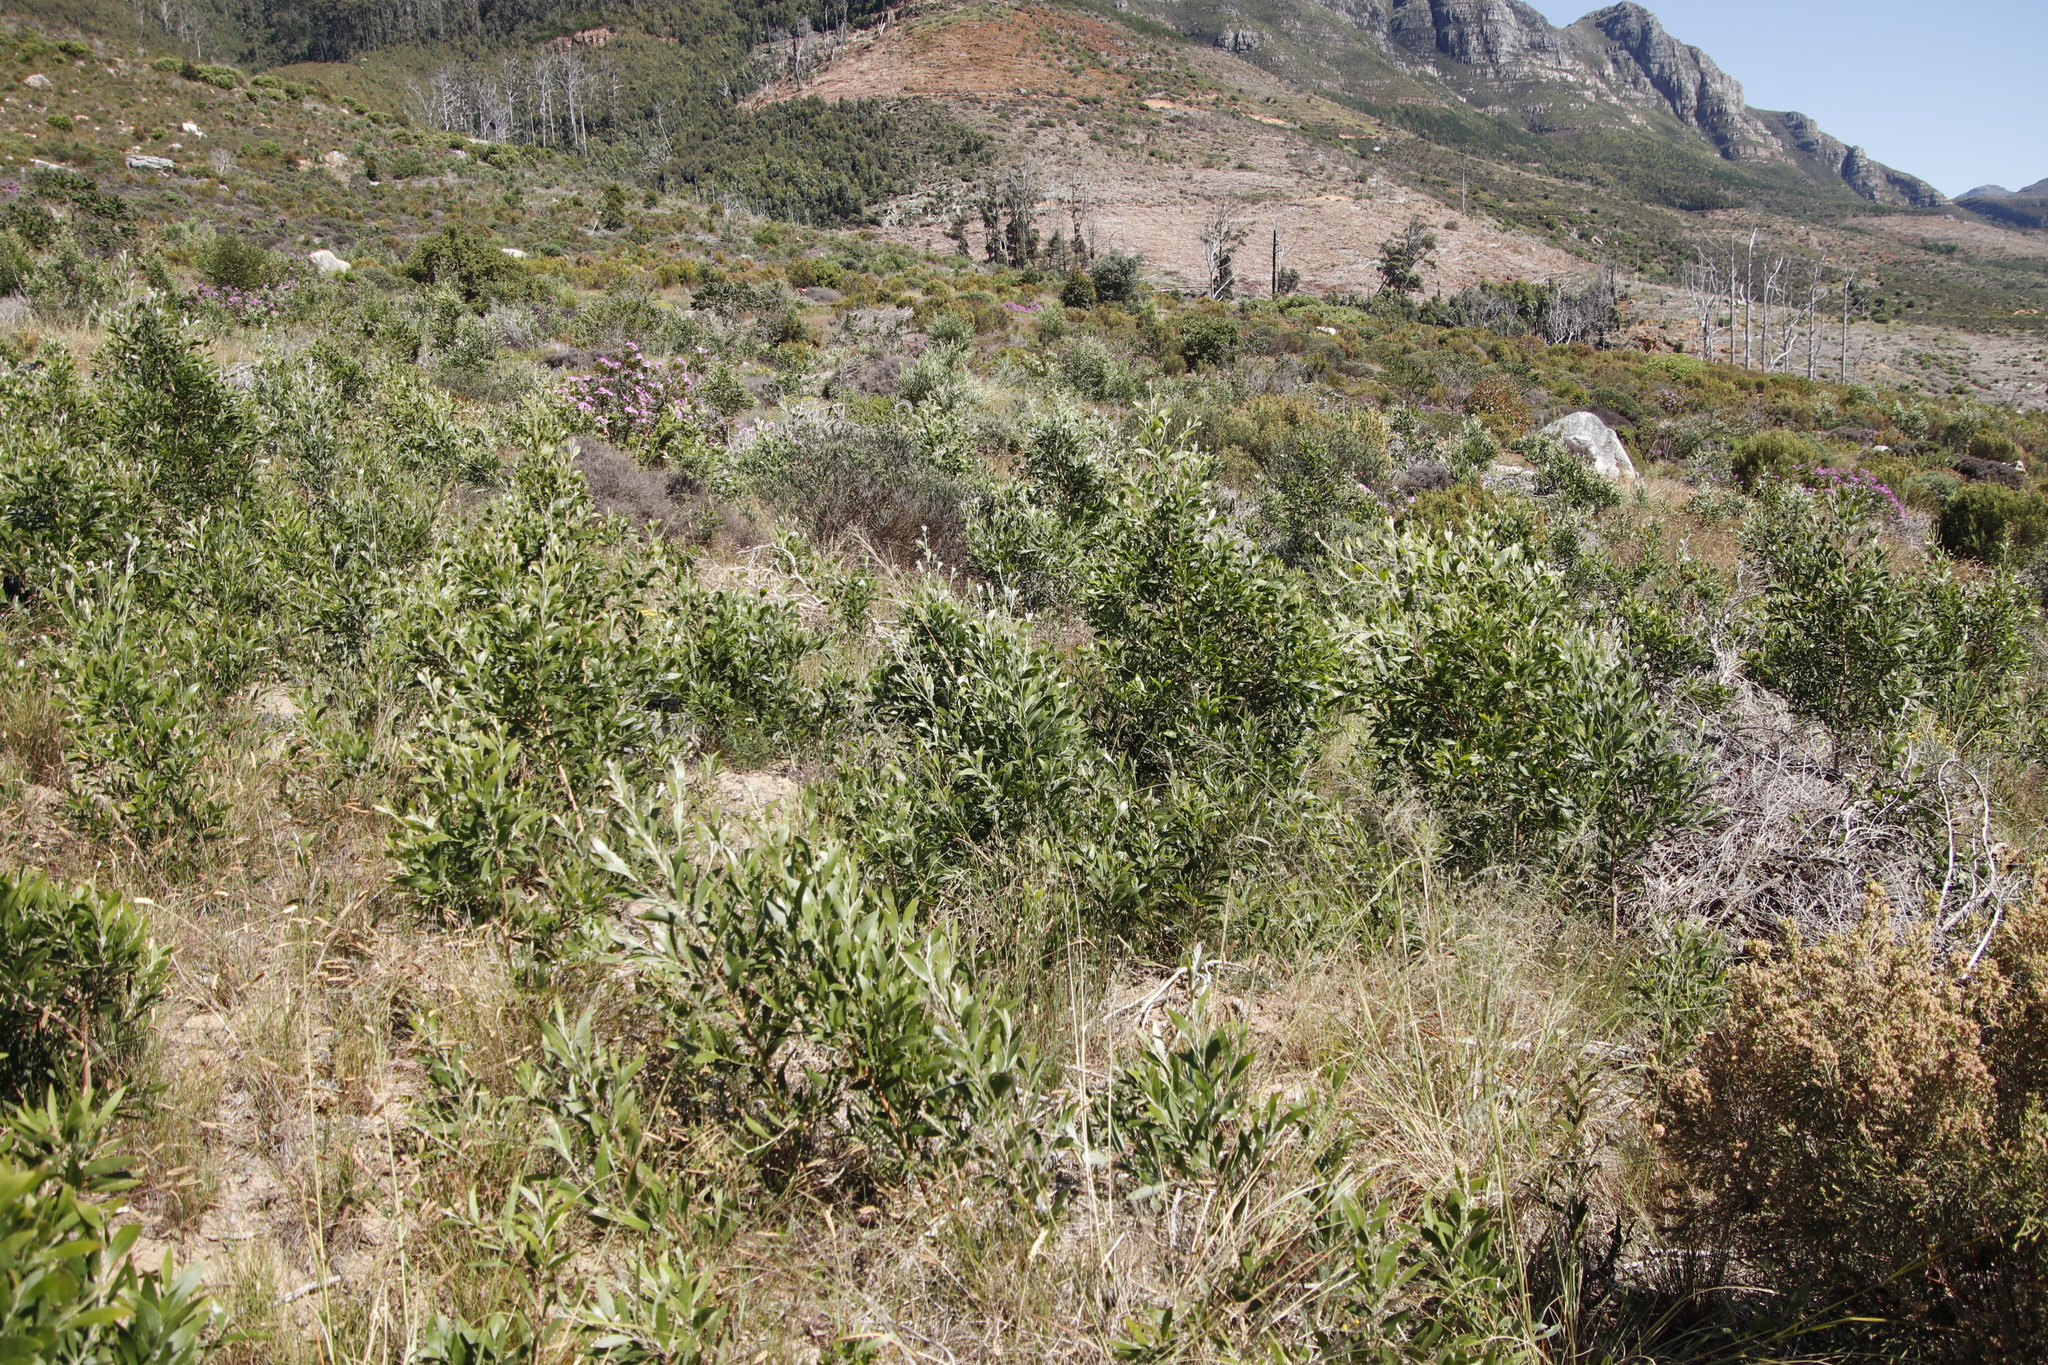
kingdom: Plantae
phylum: Tracheophyta
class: Magnoliopsida
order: Fabales
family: Fabaceae
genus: Acacia
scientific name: Acacia melanoxylon
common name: Blackwood
